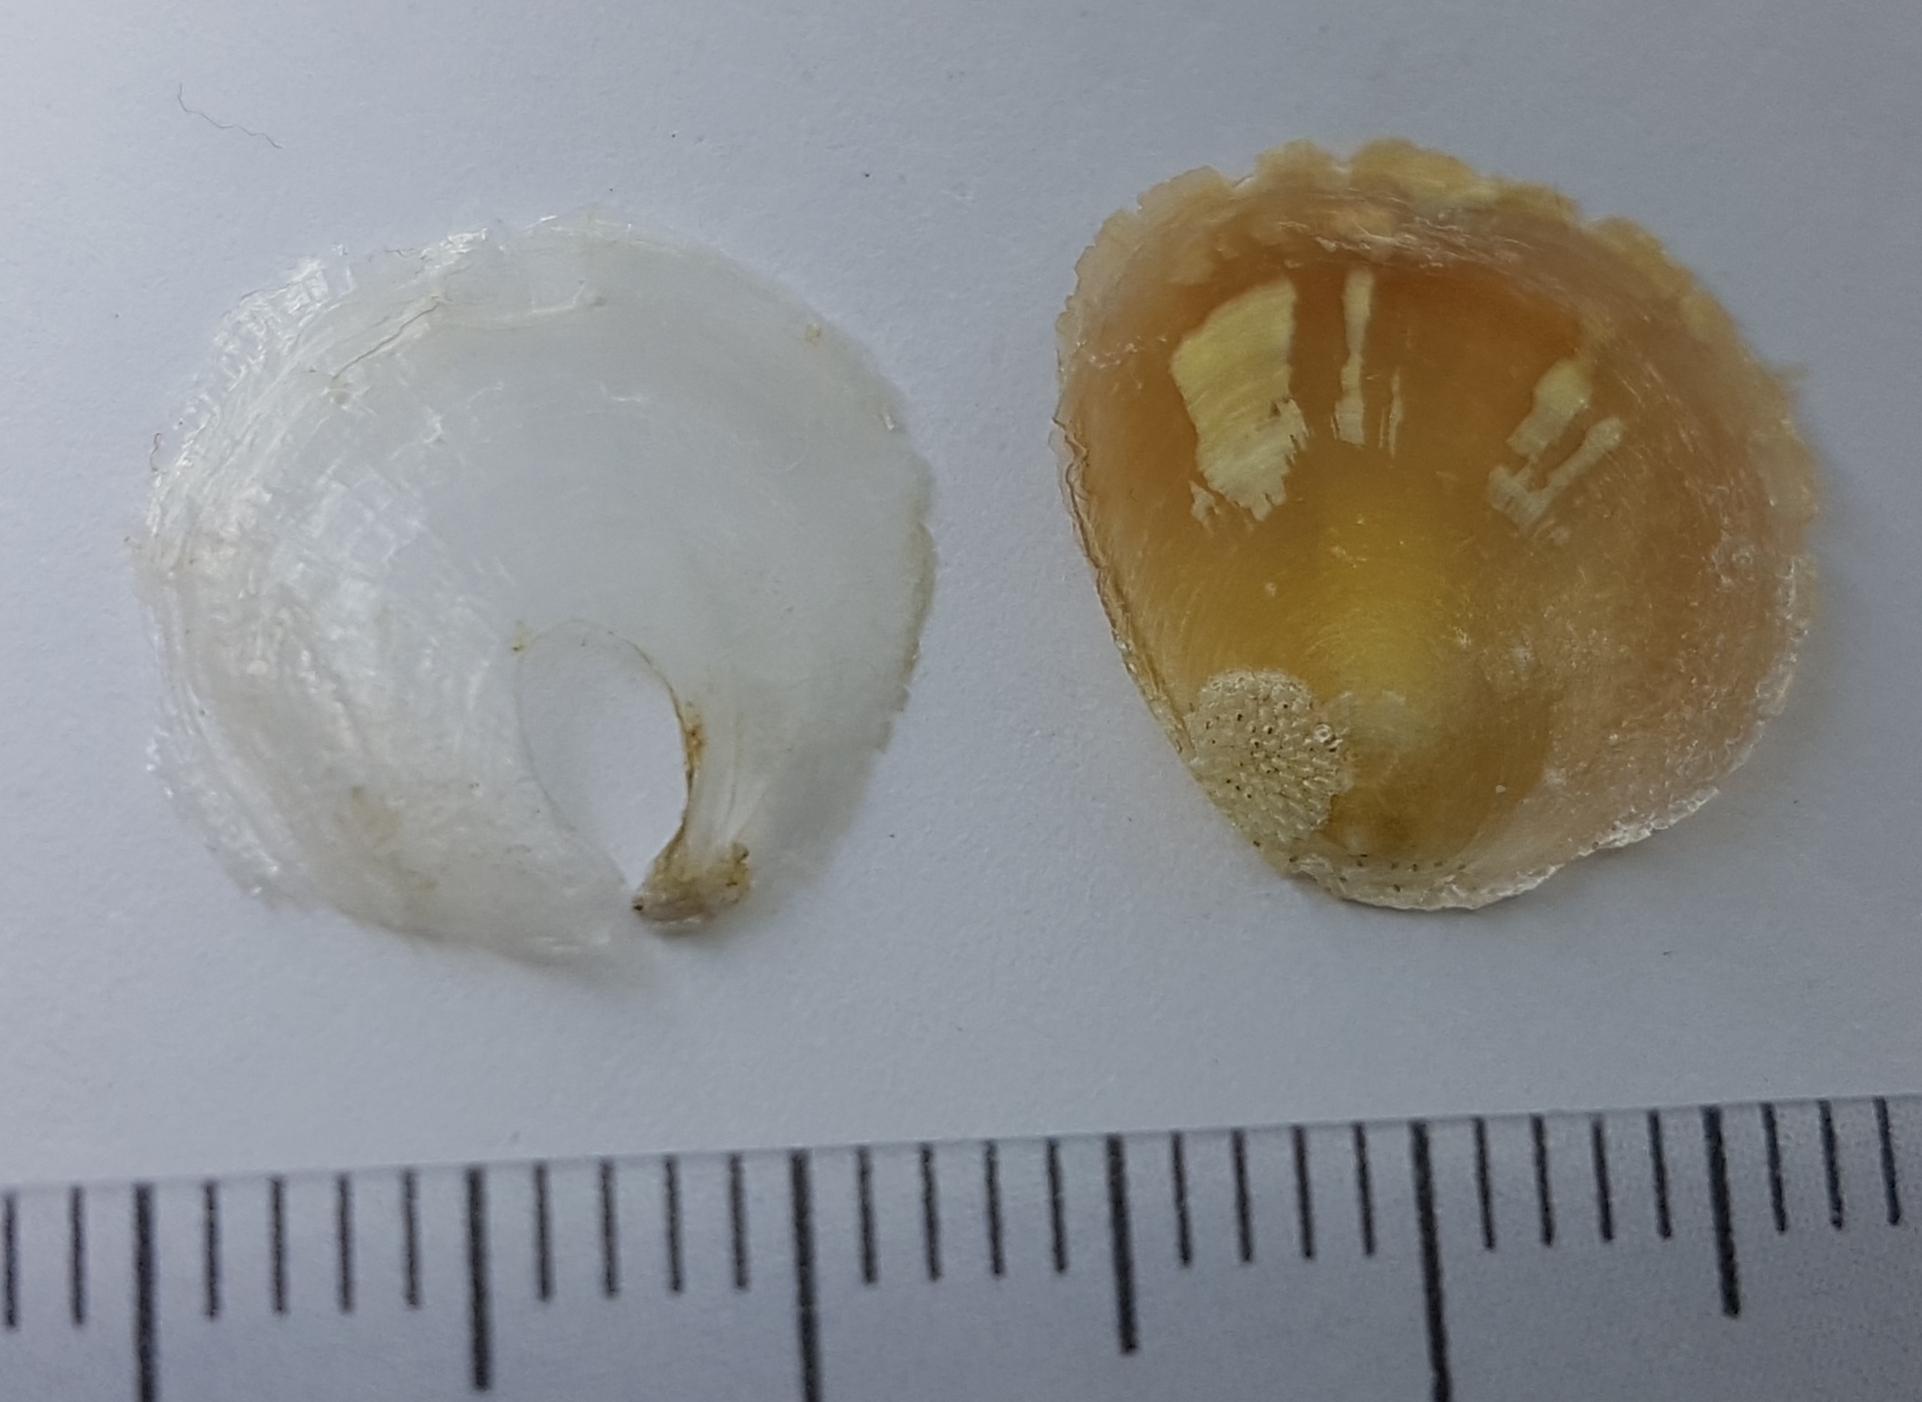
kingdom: Animalia
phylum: Mollusca
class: Bivalvia
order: Pectinida
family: Anomiidae
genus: Anomia
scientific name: Anomia ephippium
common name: Saddle oyster
